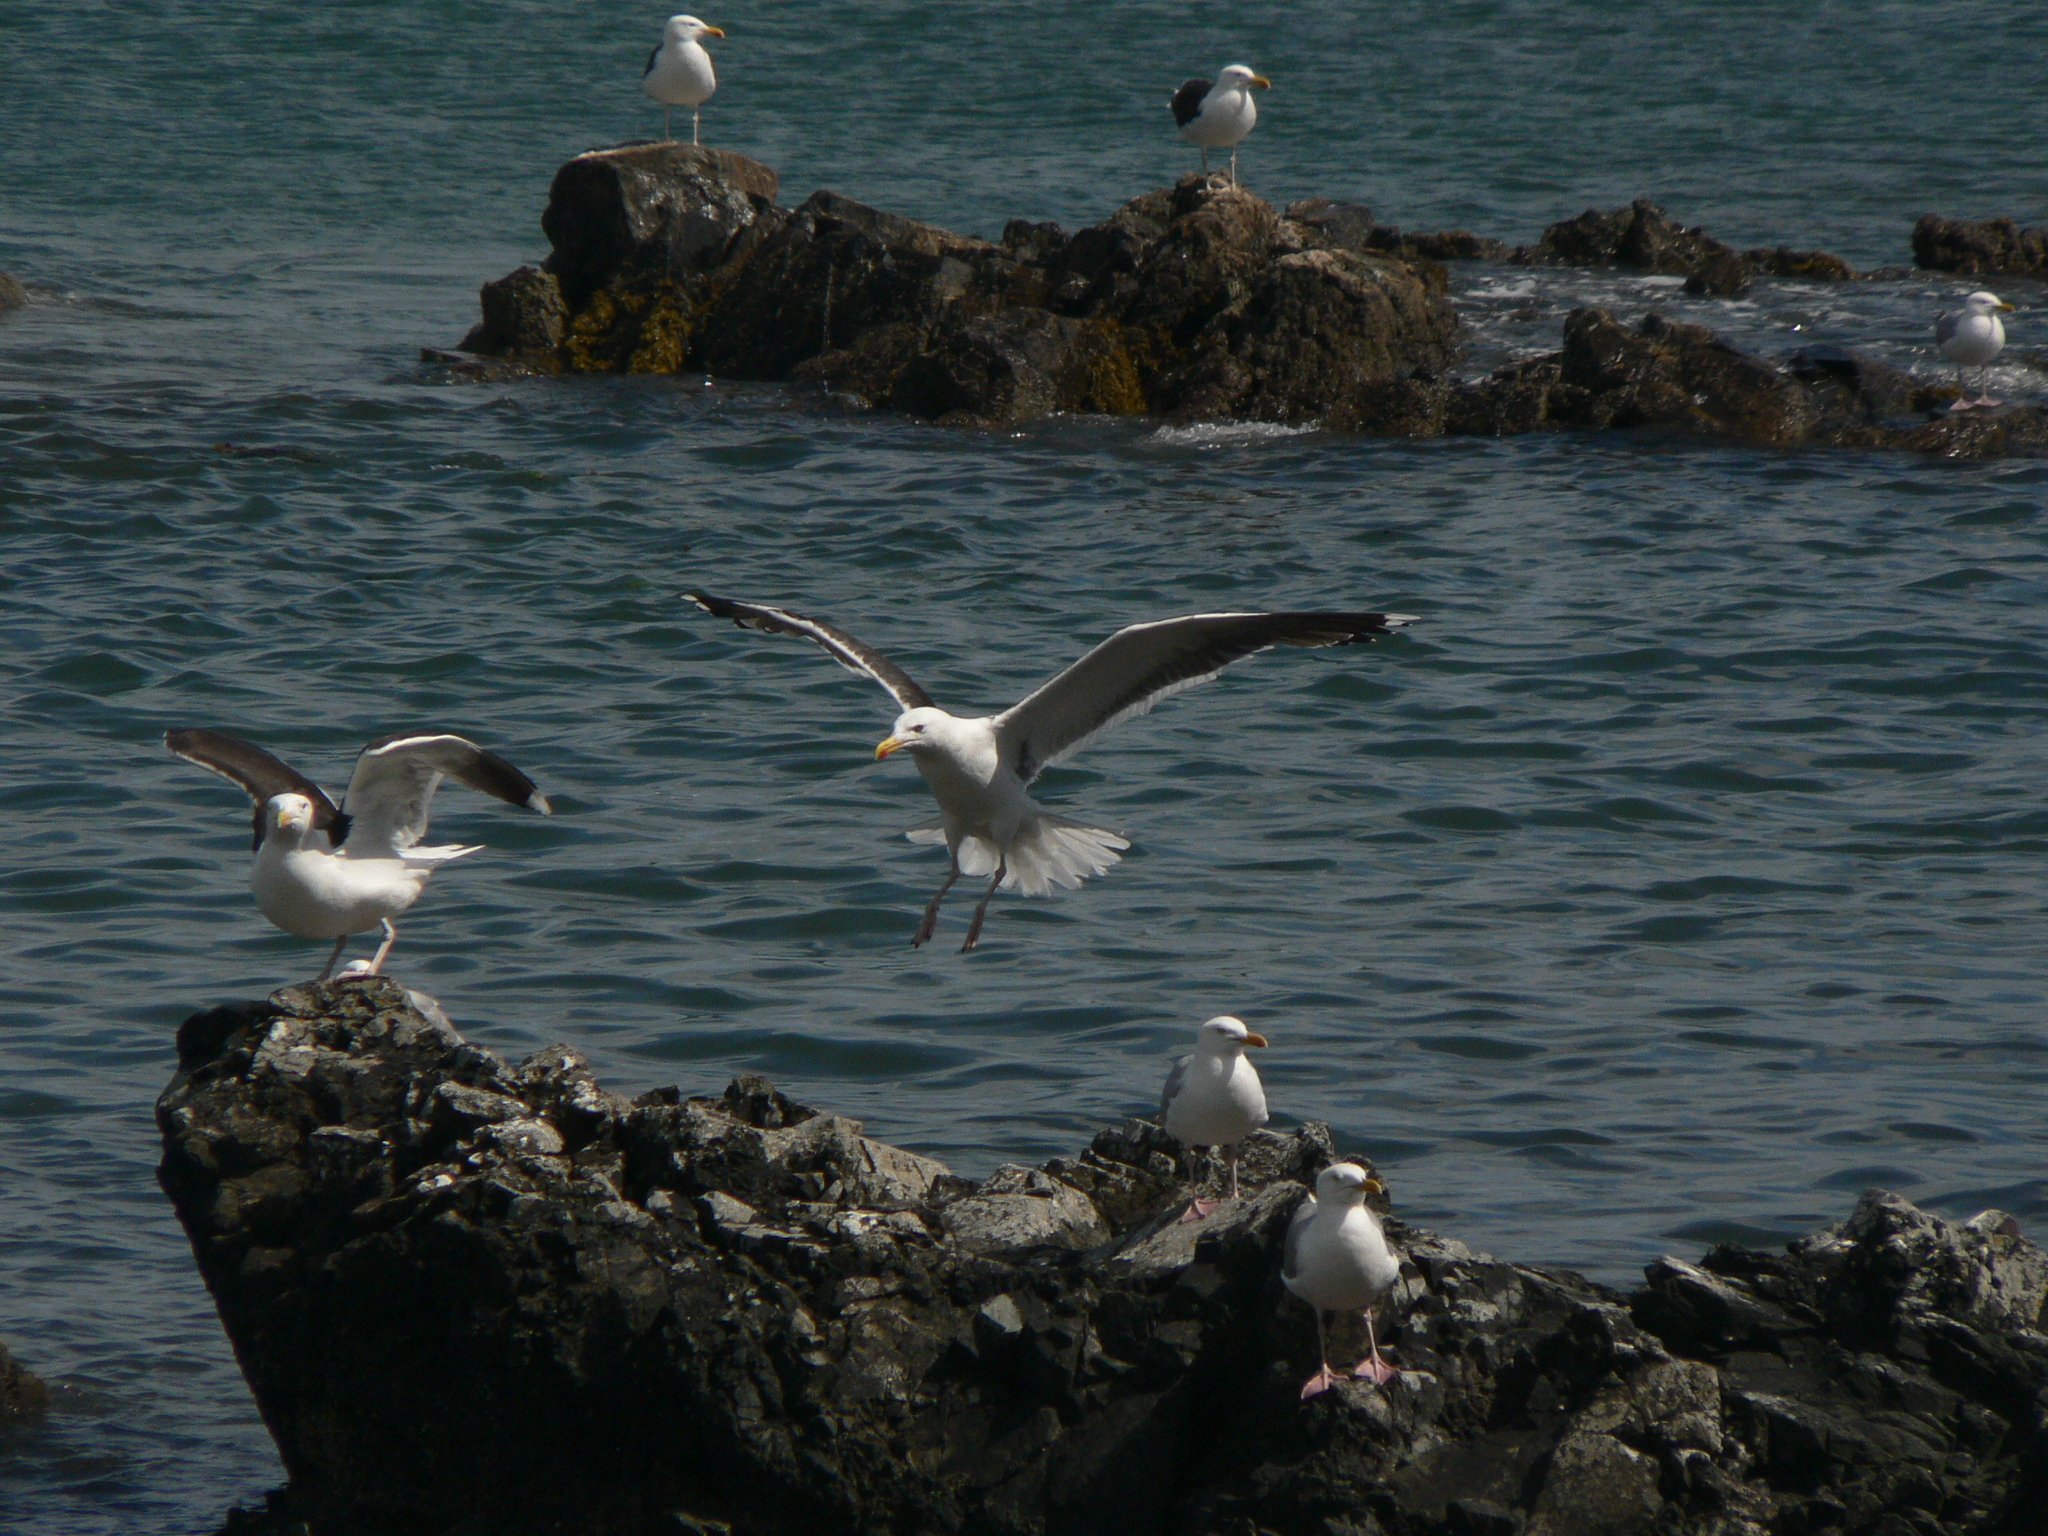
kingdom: Animalia
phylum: Chordata
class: Aves
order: Charadriiformes
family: Laridae
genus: Larus
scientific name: Larus marinus
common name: Great black-backed gull
